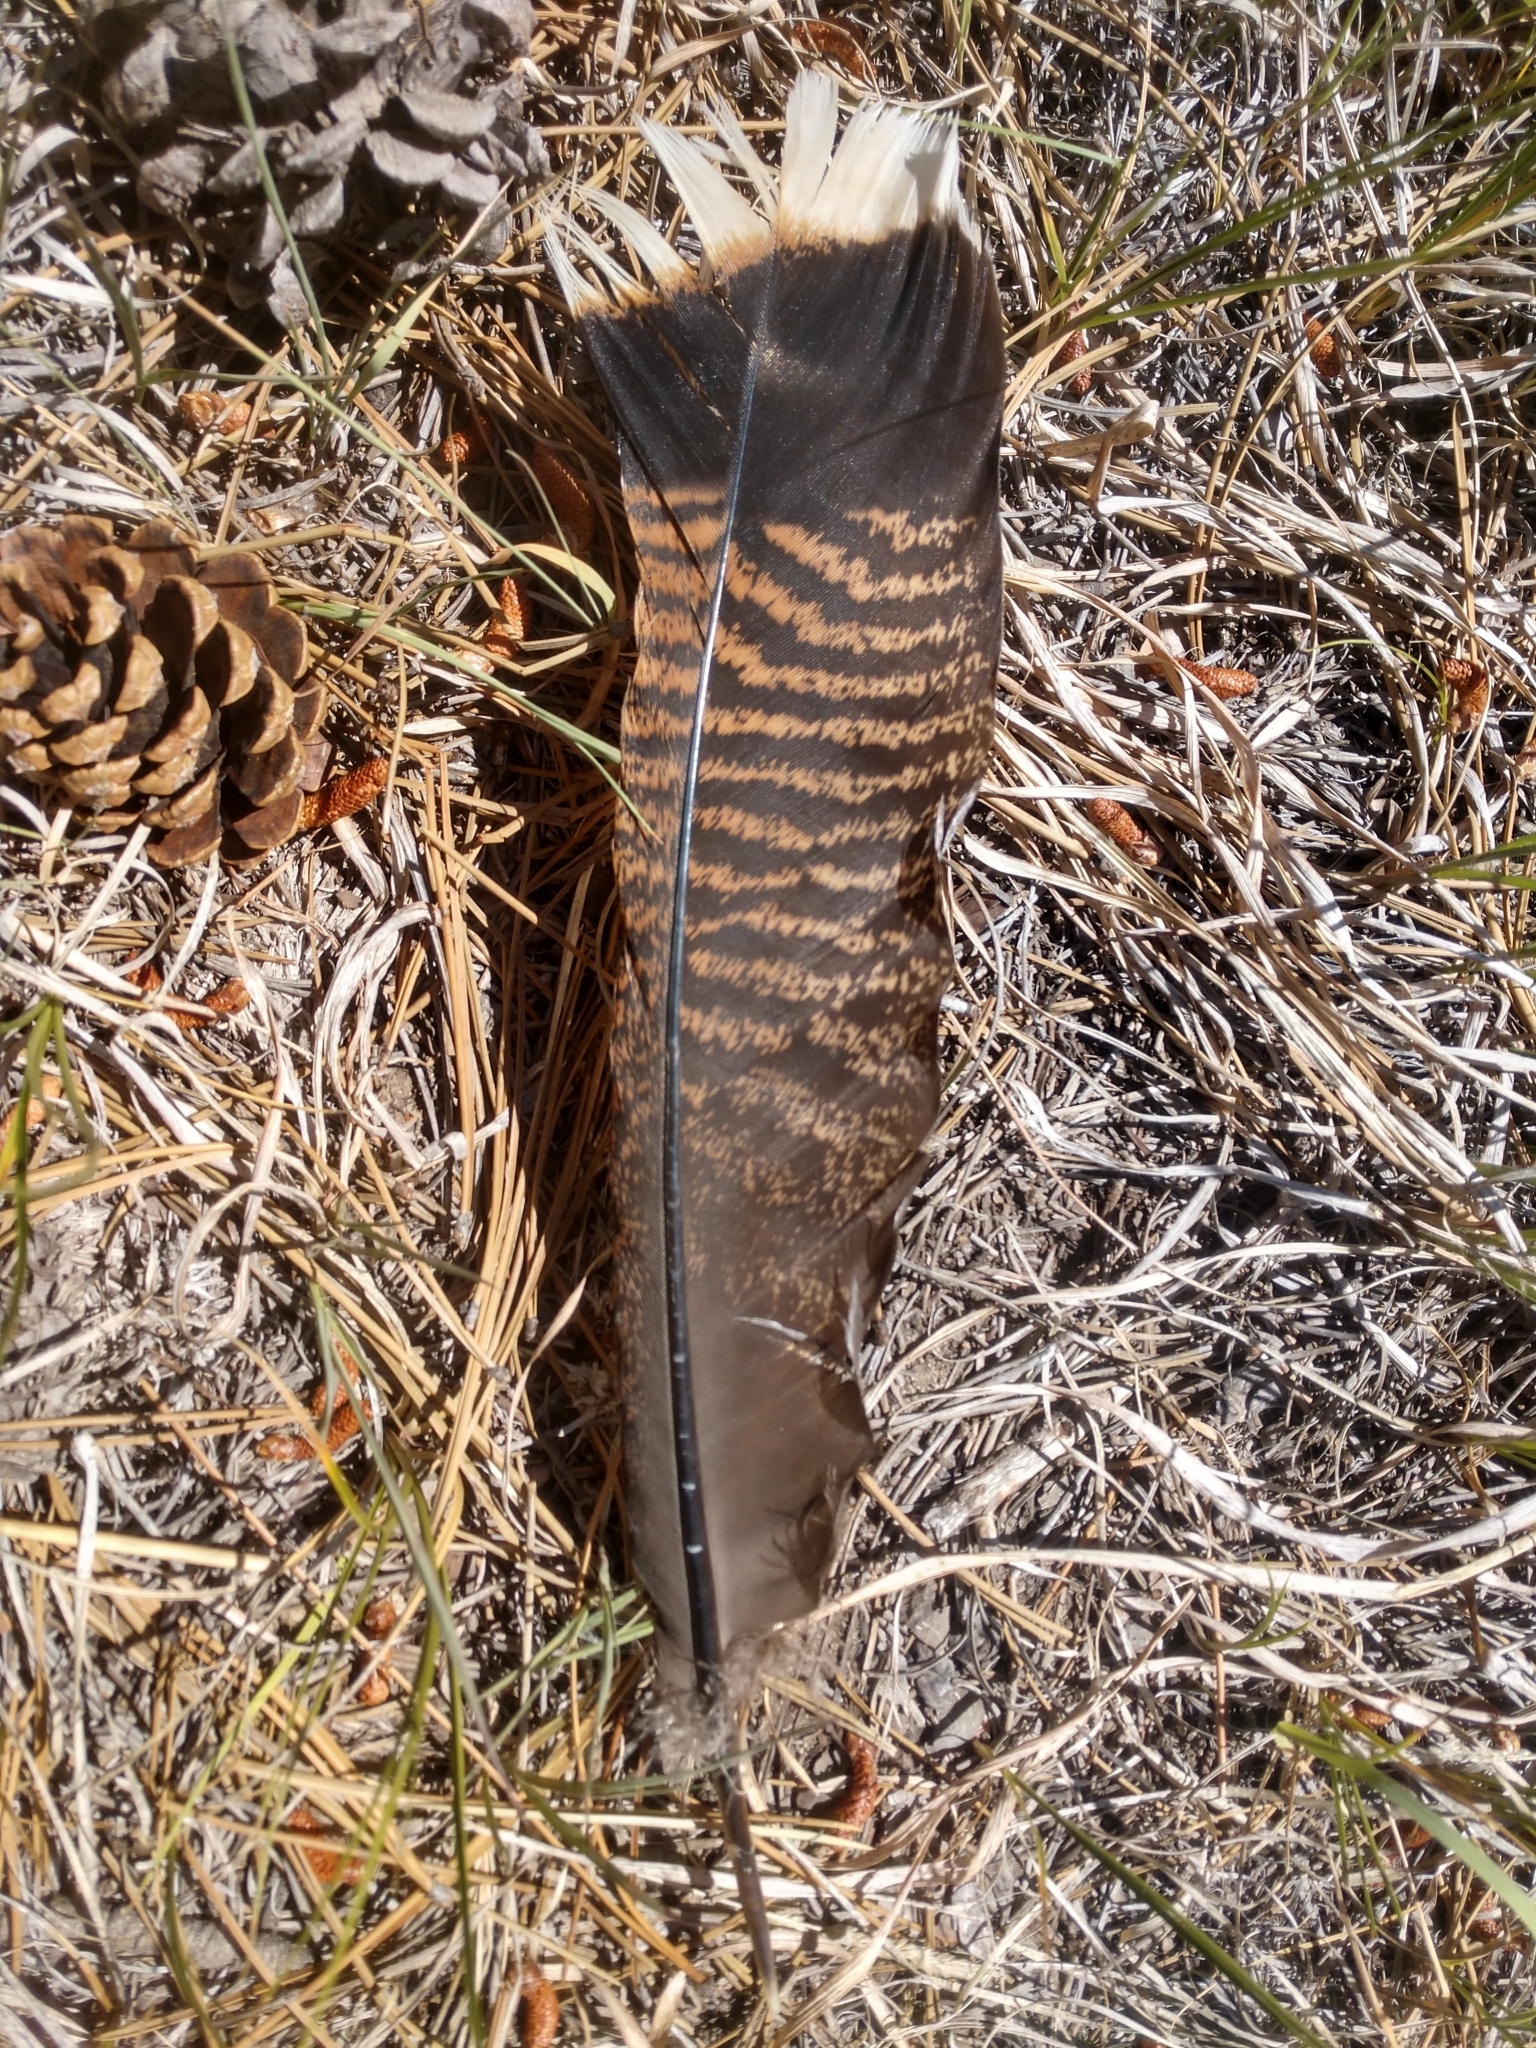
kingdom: Animalia
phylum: Chordata
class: Aves
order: Galliformes
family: Phasianidae
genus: Meleagris
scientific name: Meleagris gallopavo
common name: Wild turkey
